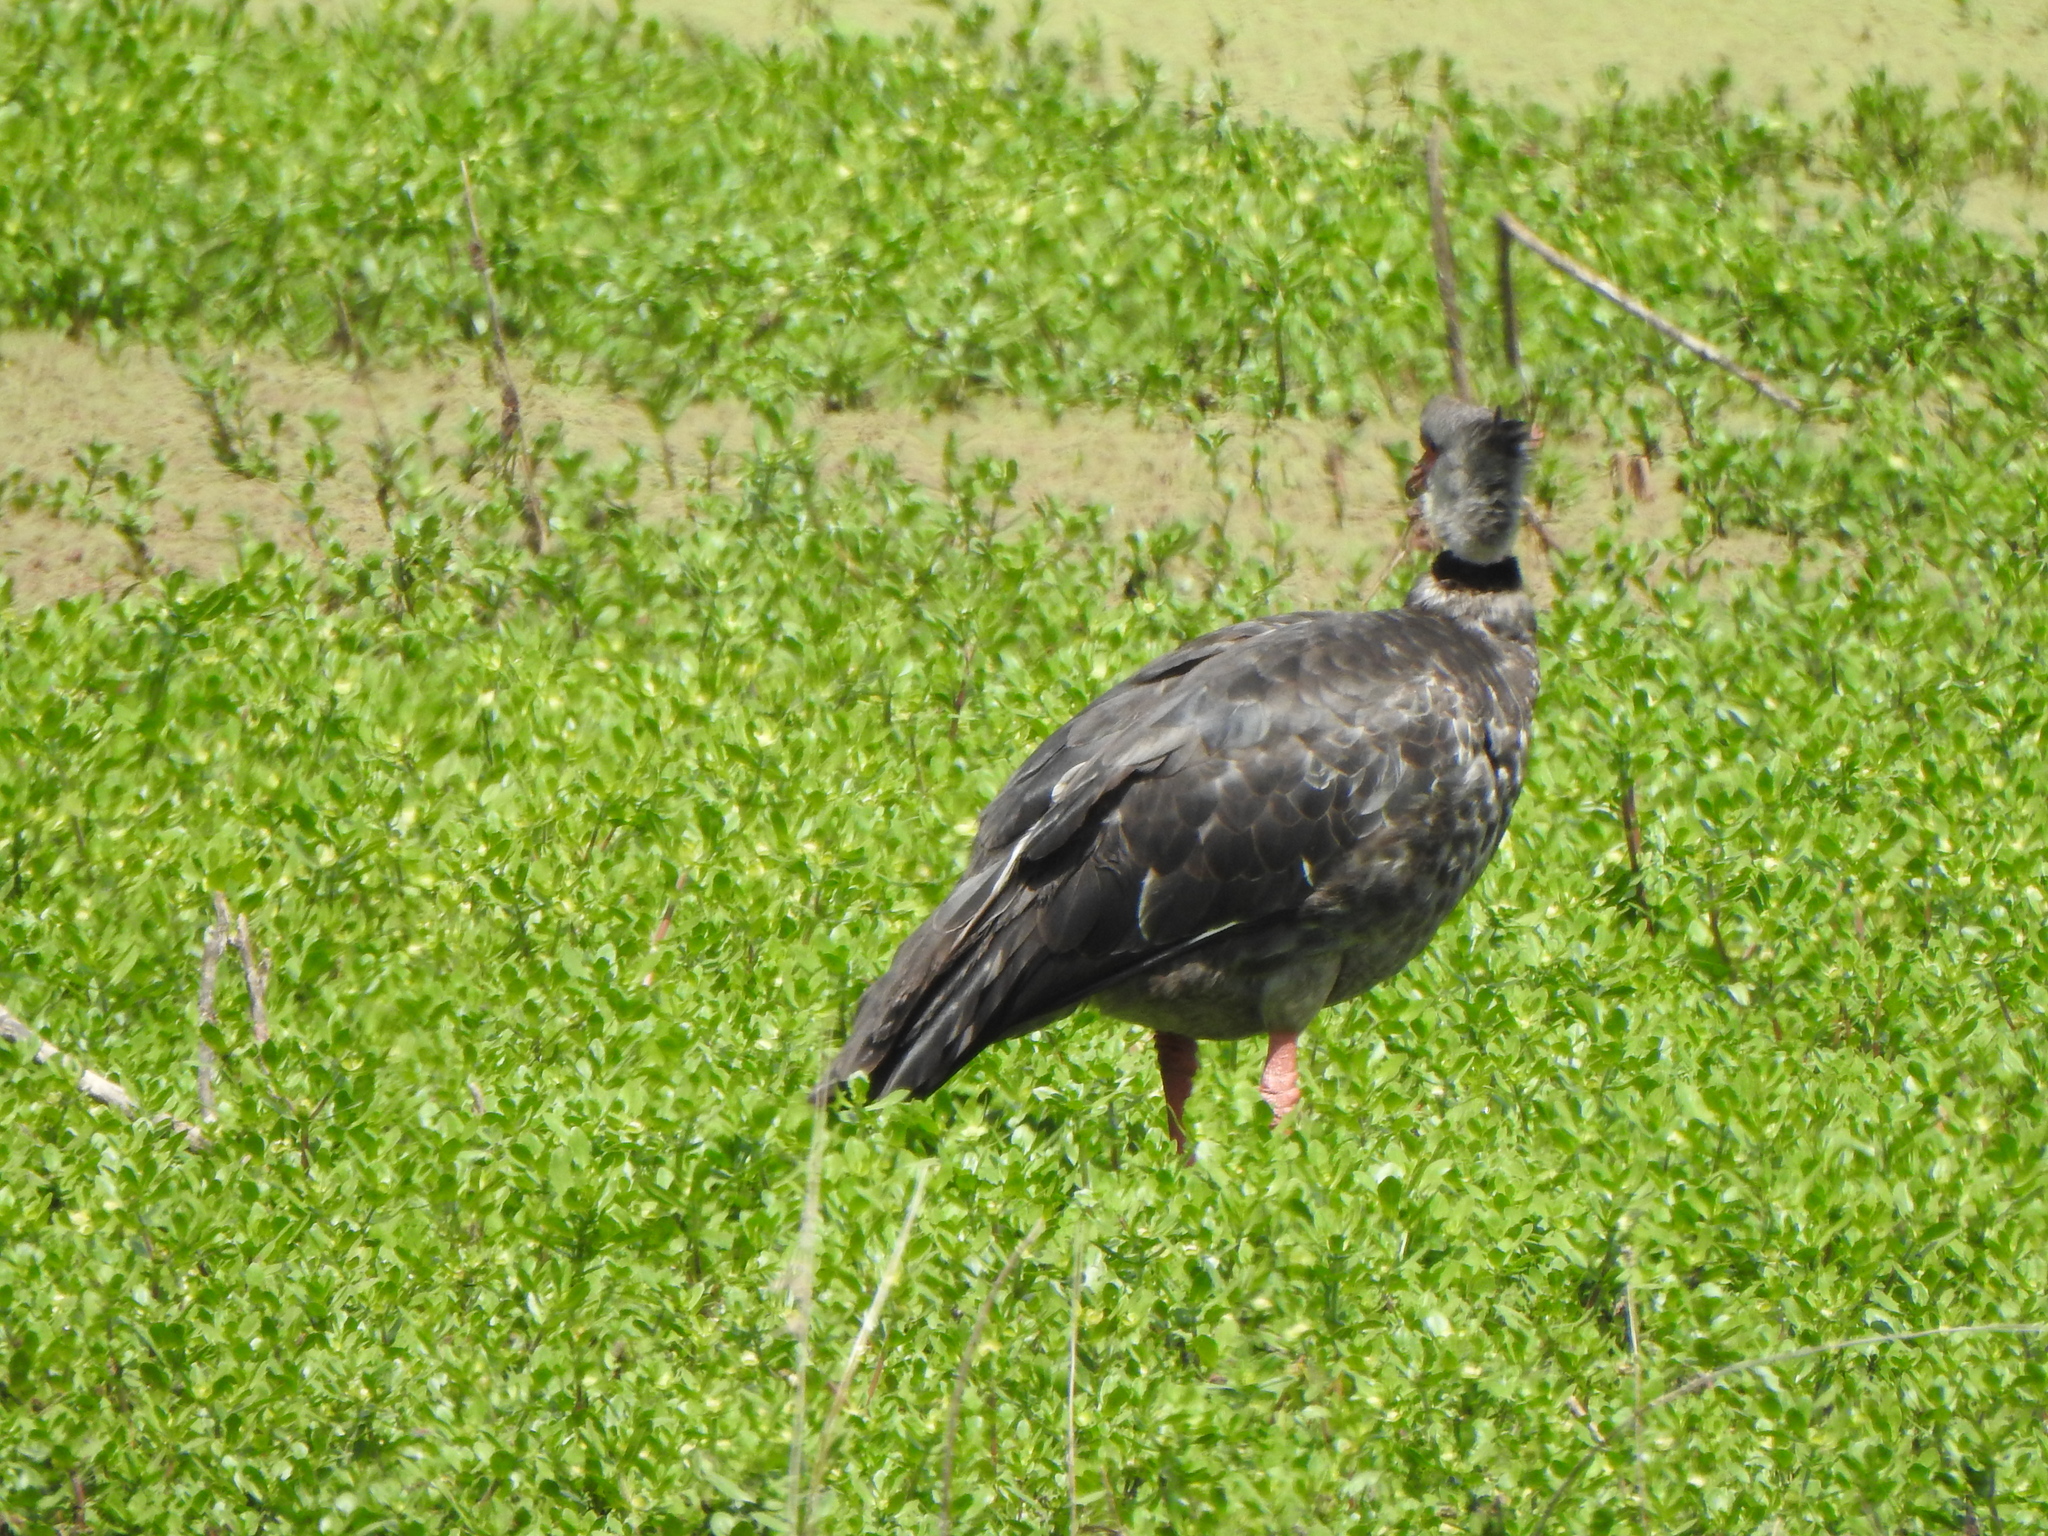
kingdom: Animalia
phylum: Chordata
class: Aves
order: Anseriformes
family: Anhimidae
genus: Chauna
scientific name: Chauna torquata
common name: Southern screamer
